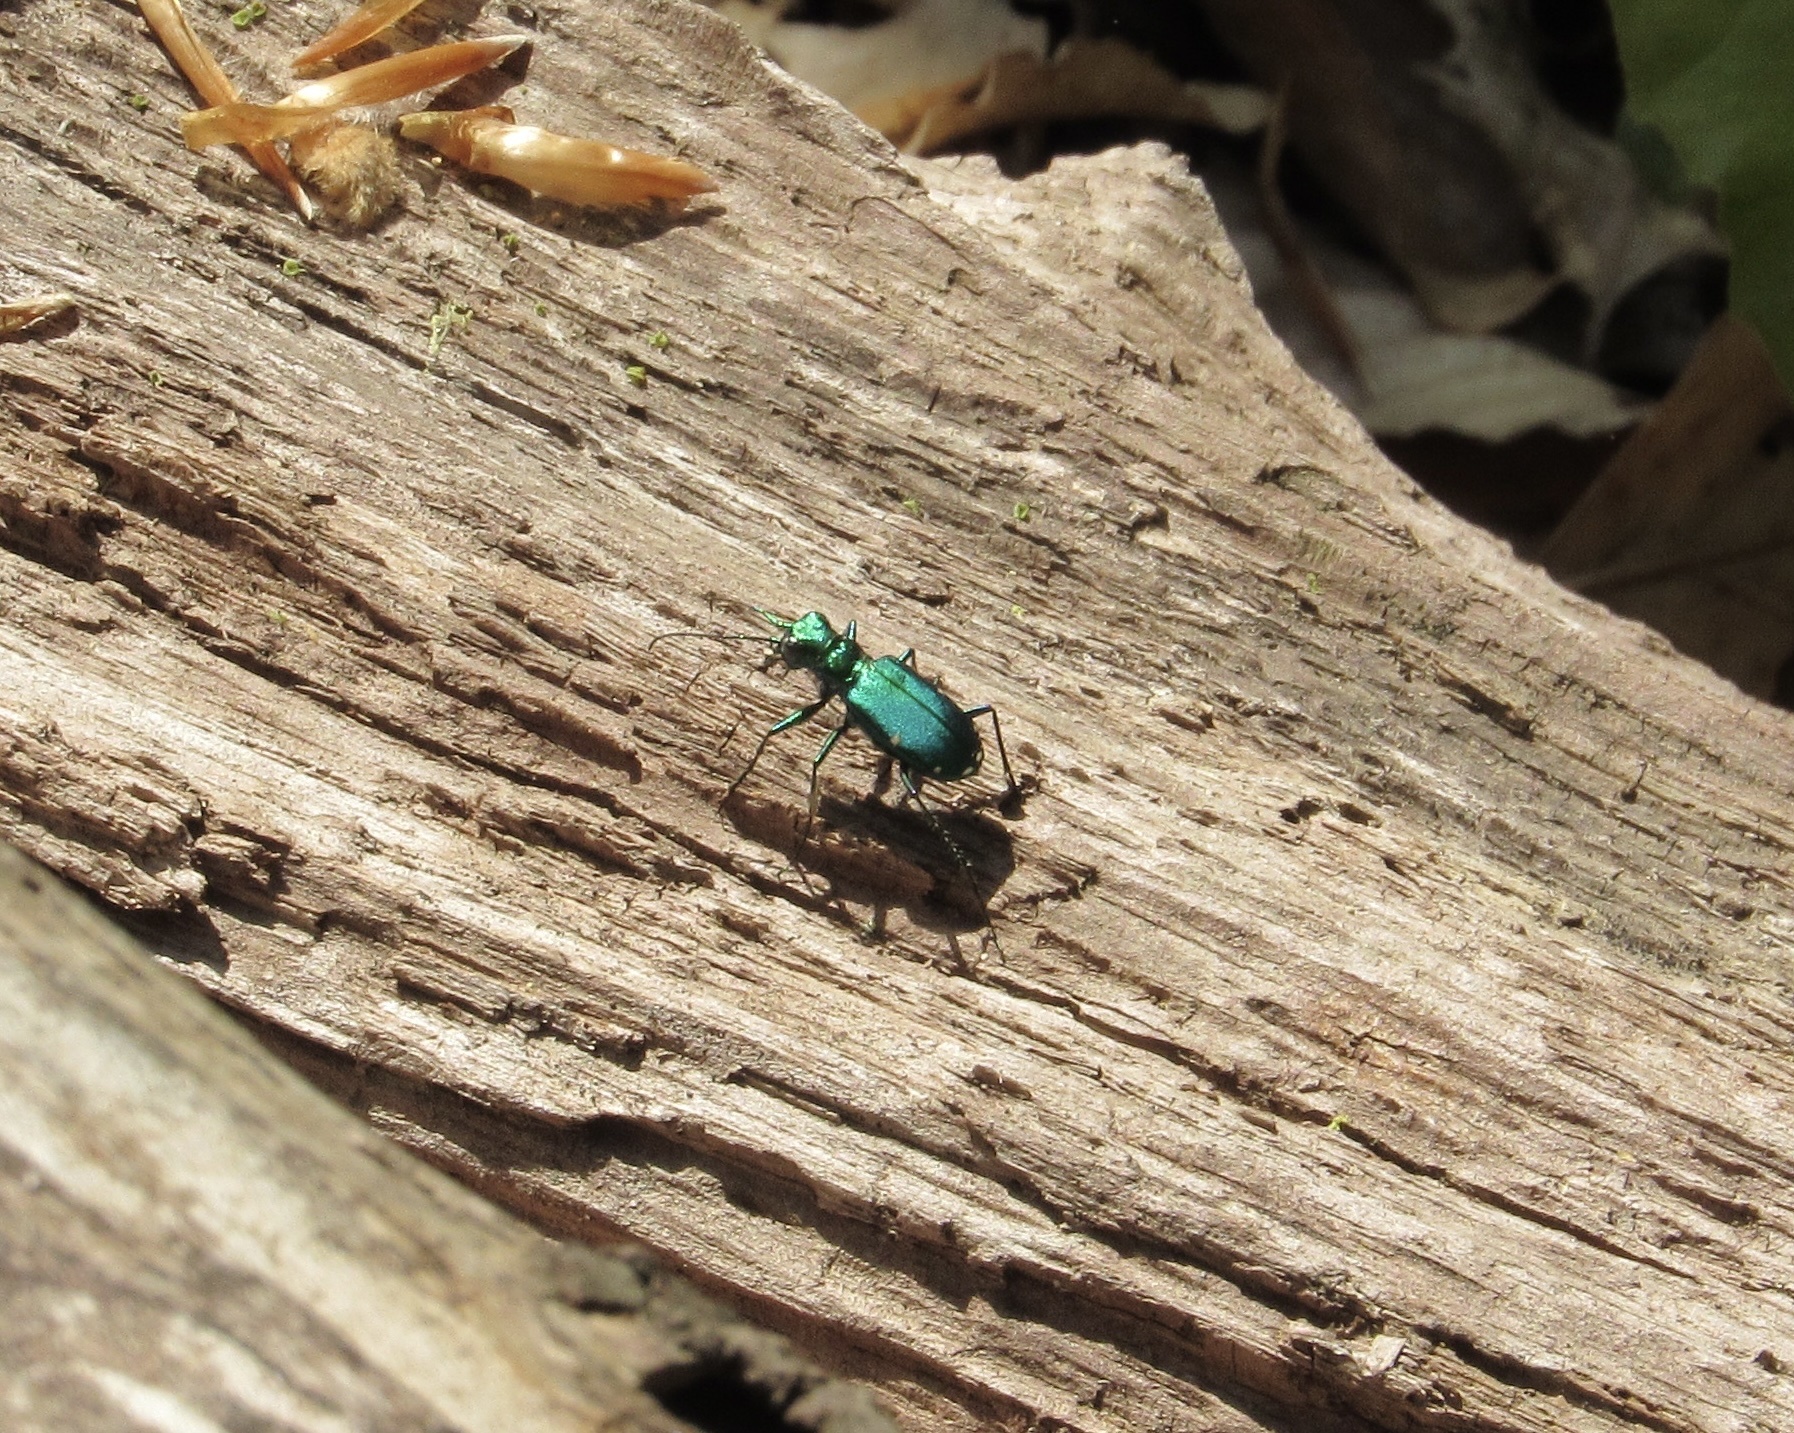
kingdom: Animalia
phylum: Arthropoda
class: Insecta
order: Coleoptera
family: Carabidae
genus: Cicindela
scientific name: Cicindela sexguttata
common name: Six-spotted tiger beetle
